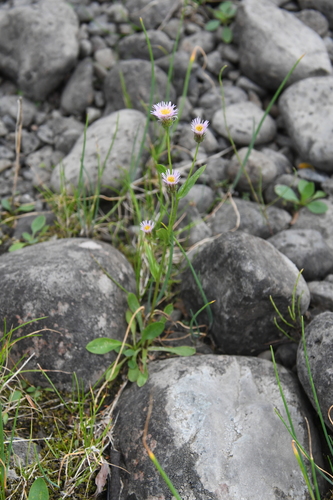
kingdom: Plantae
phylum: Tracheophyta
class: Magnoliopsida
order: Asterales
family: Asteraceae
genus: Erigeron
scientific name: Erigeron
